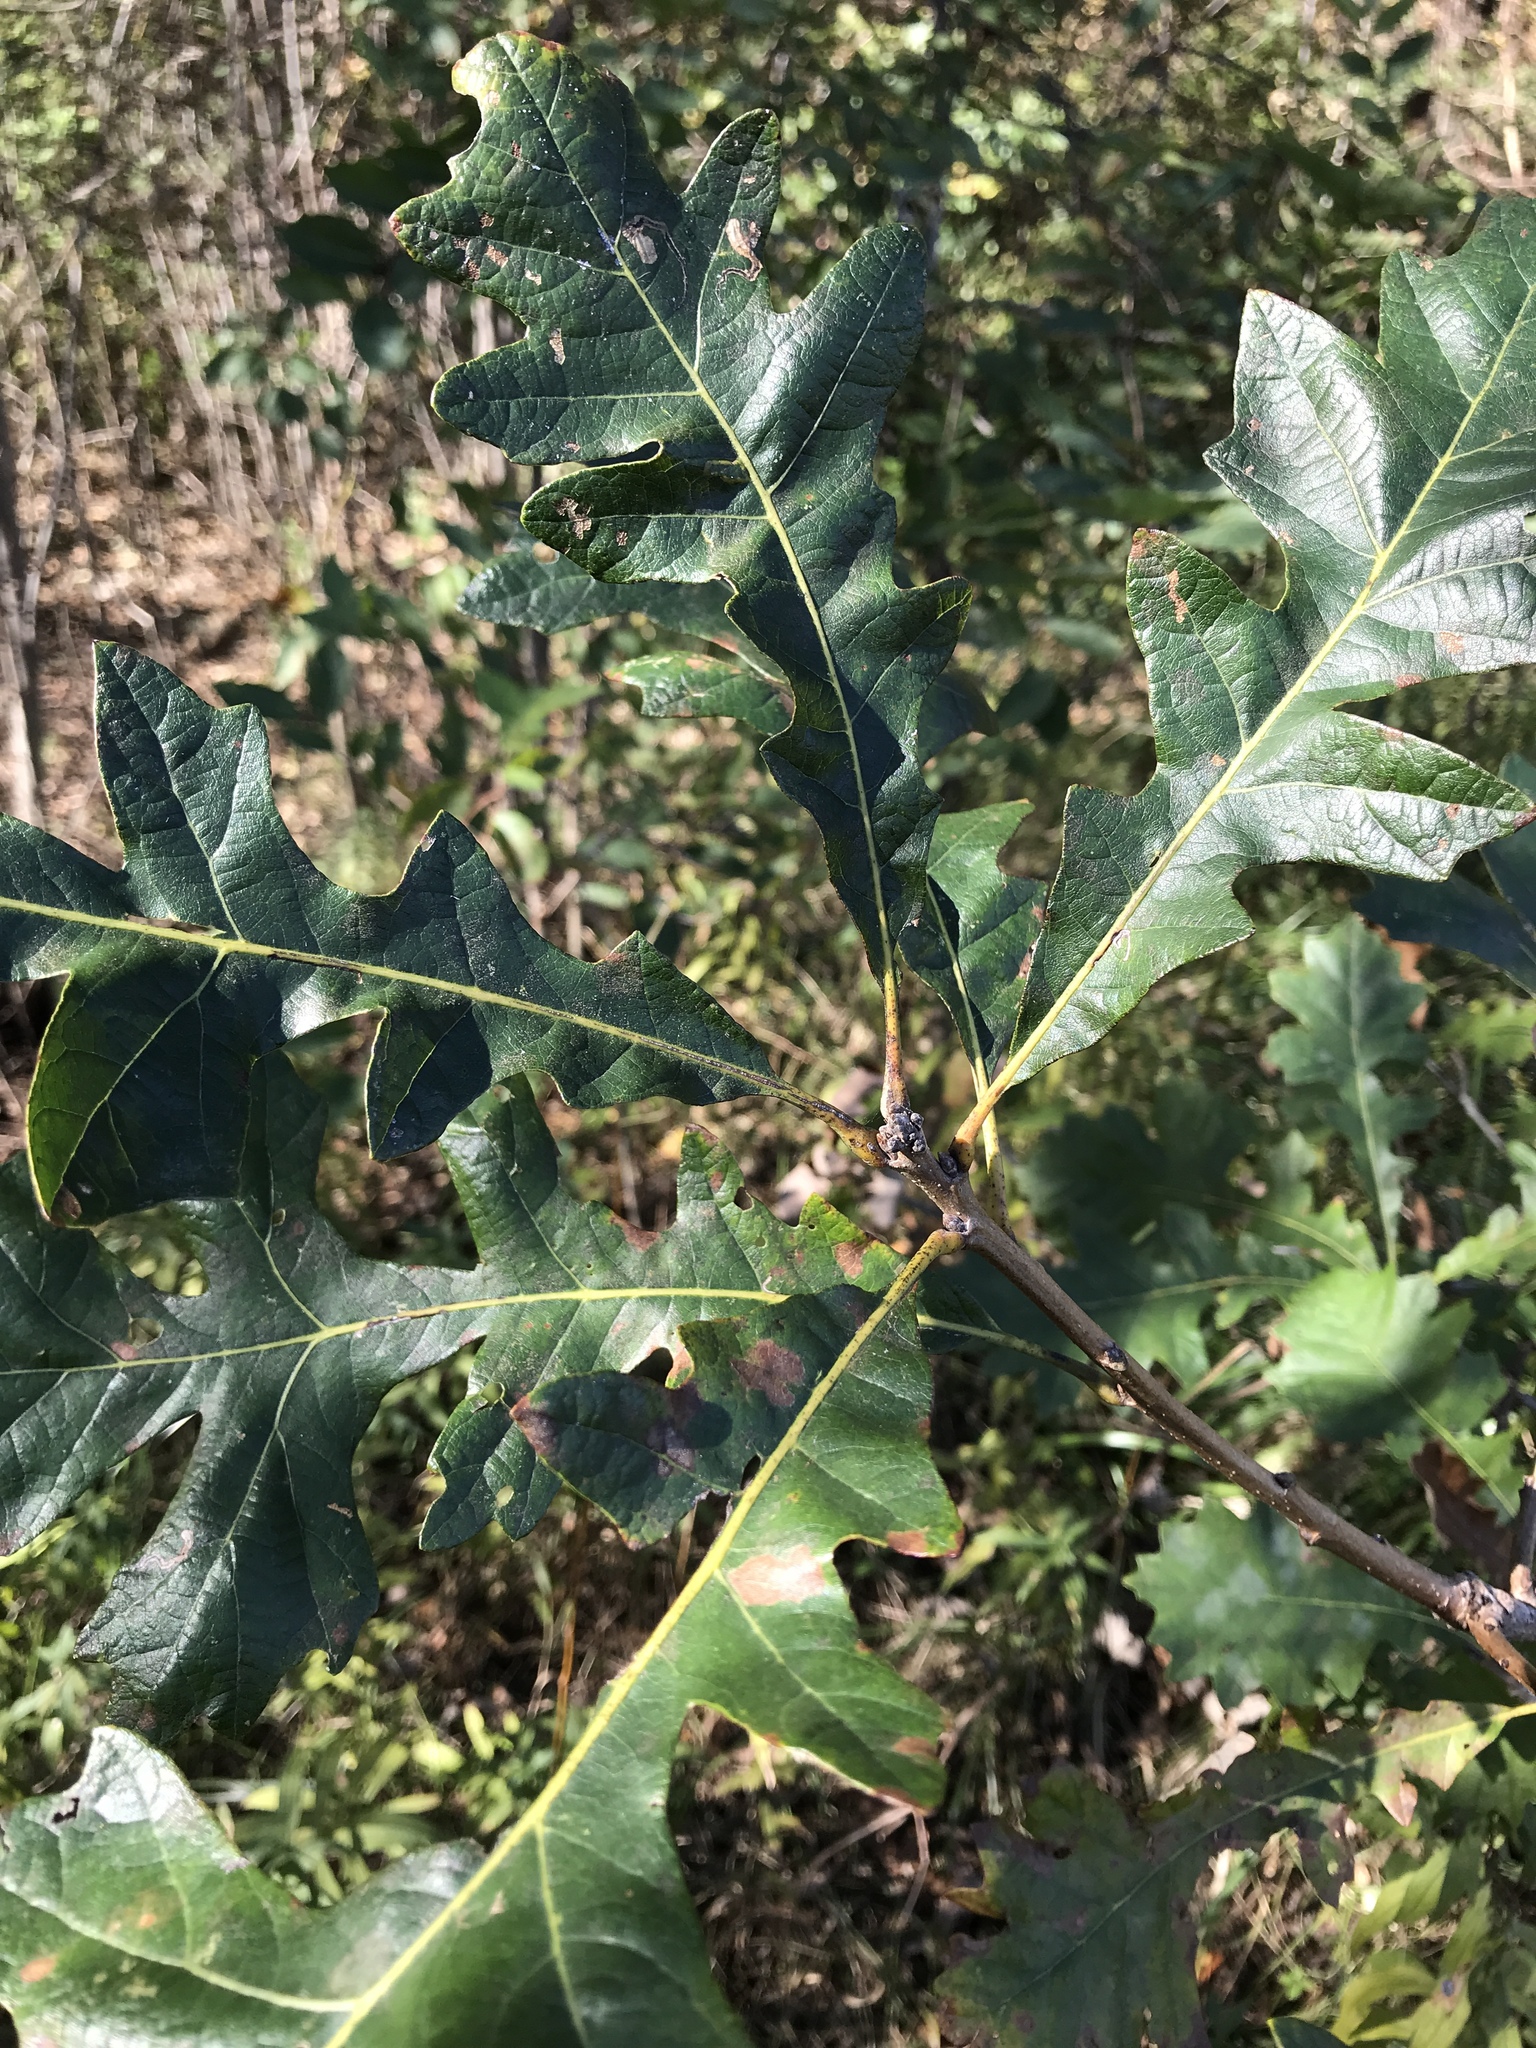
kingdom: Plantae
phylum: Tracheophyta
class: Magnoliopsida
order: Fagales
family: Fagaceae
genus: Quercus
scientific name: Quercus macrocarpa
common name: Bur oak
